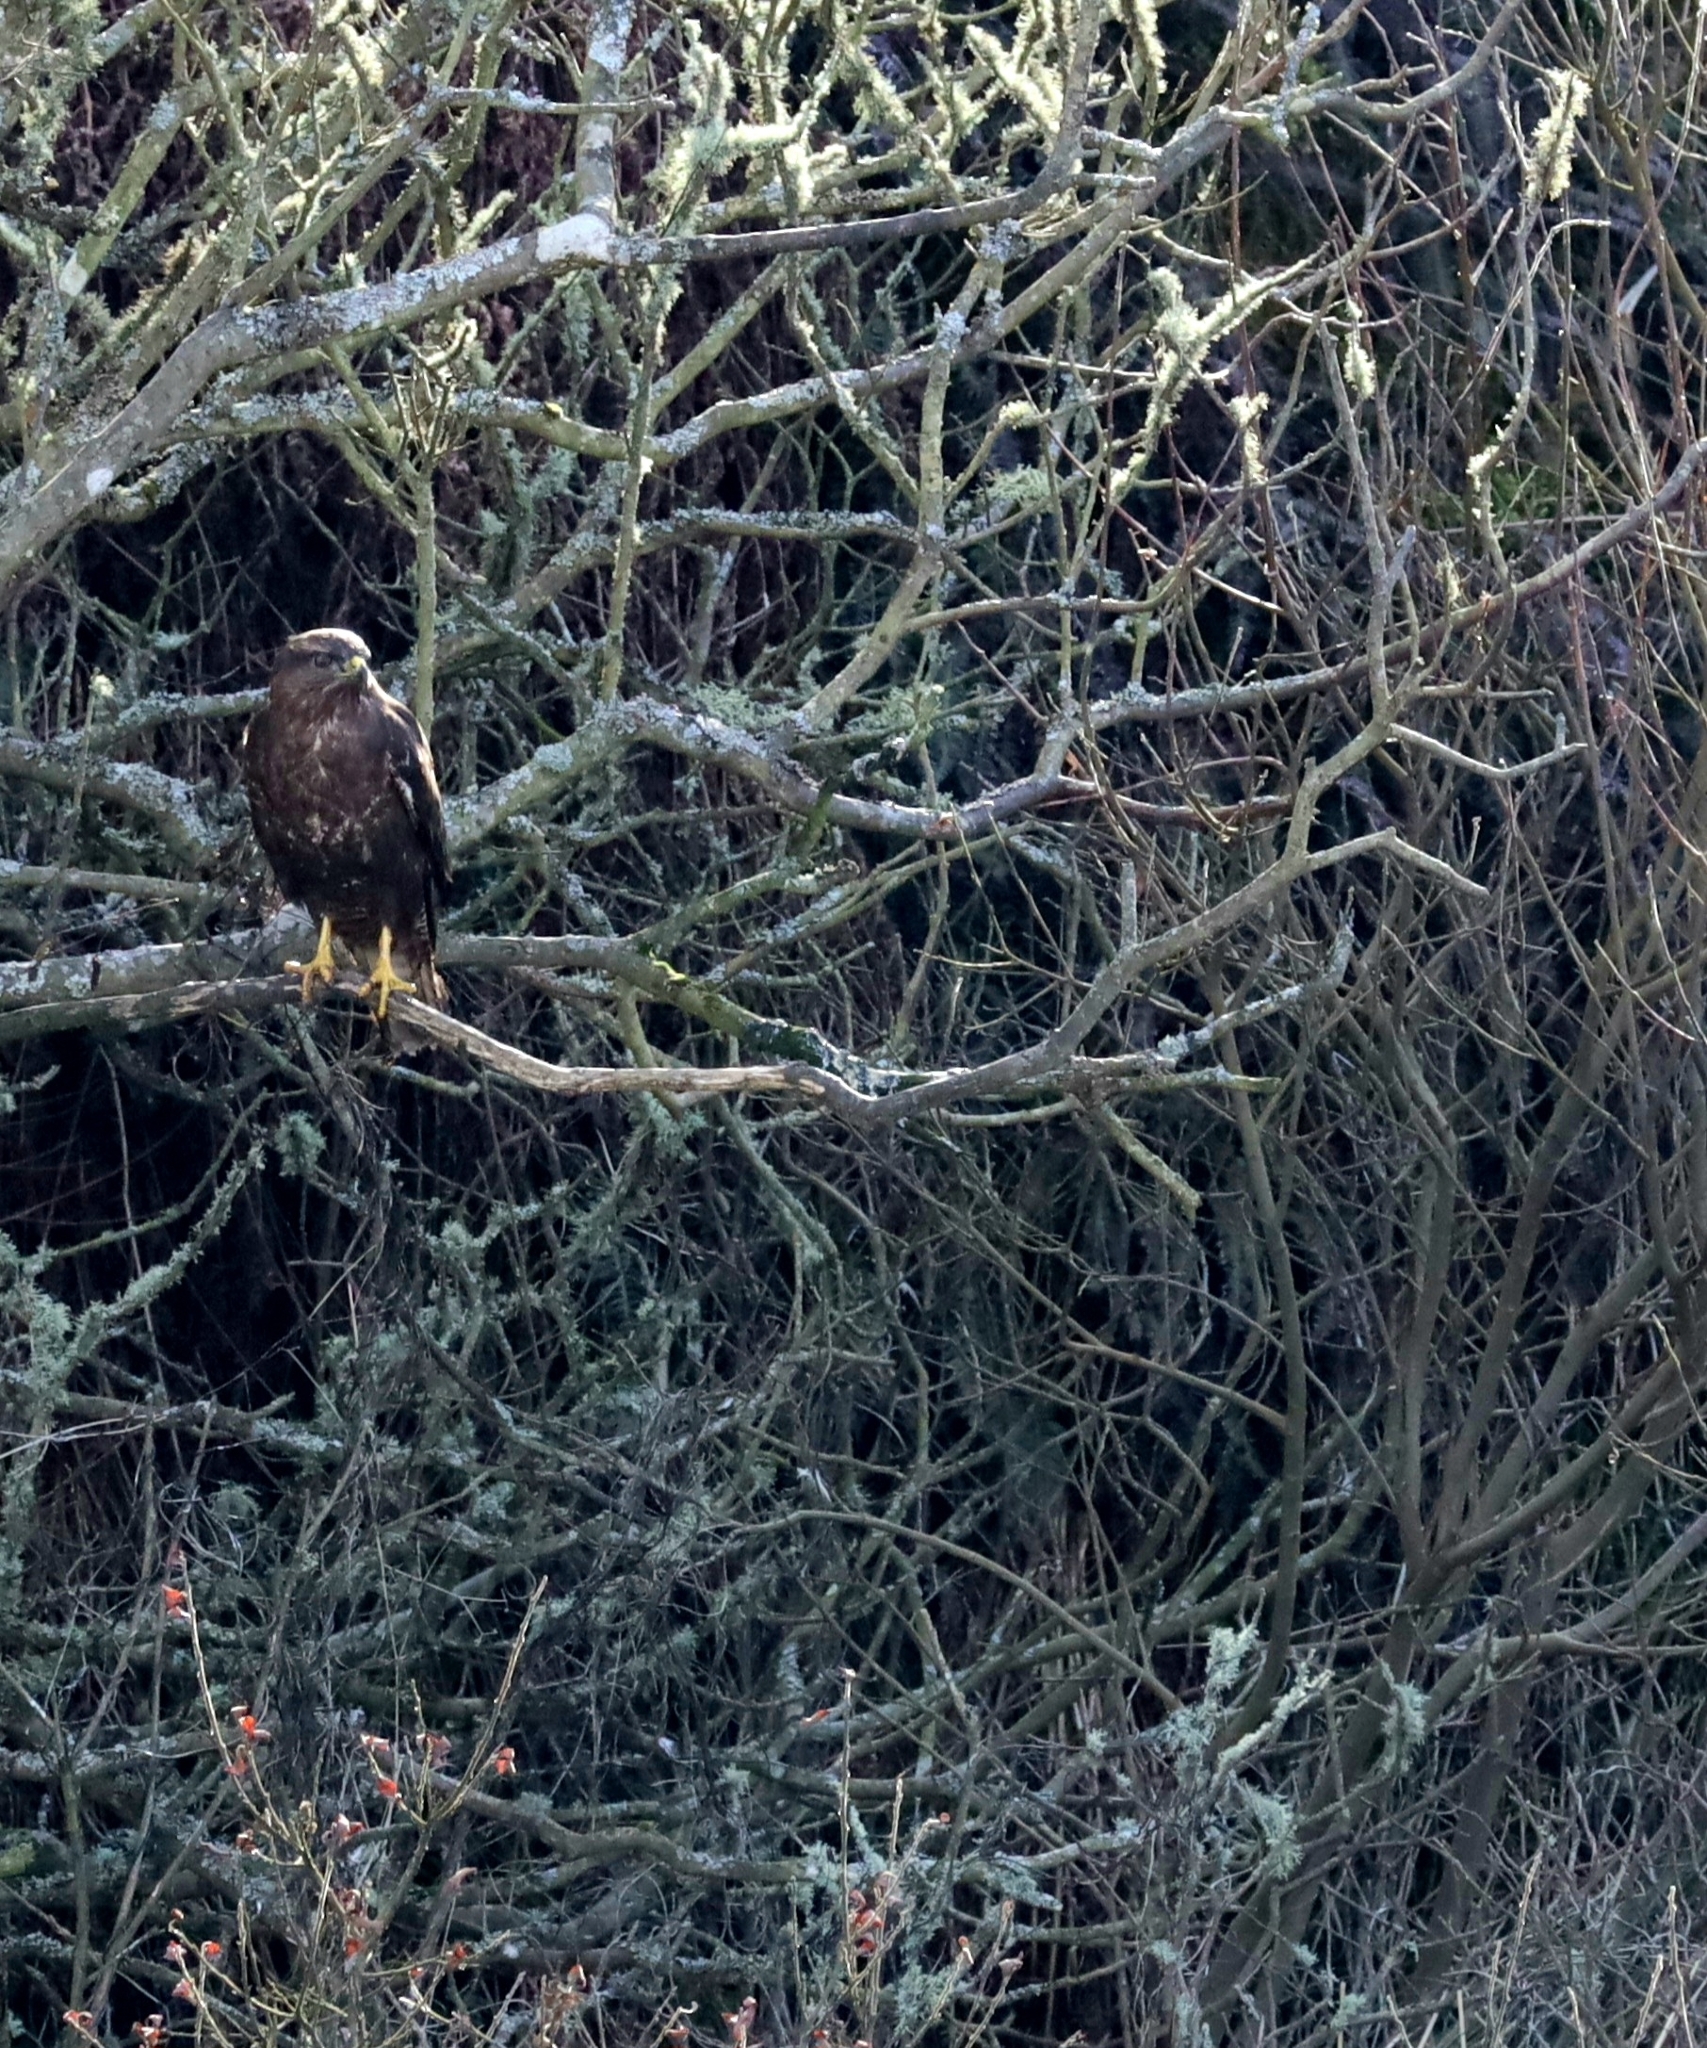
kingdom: Animalia
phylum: Chordata
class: Aves
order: Accipitriformes
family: Accipitridae
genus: Buteo
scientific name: Buteo buteo
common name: Common buzzard
